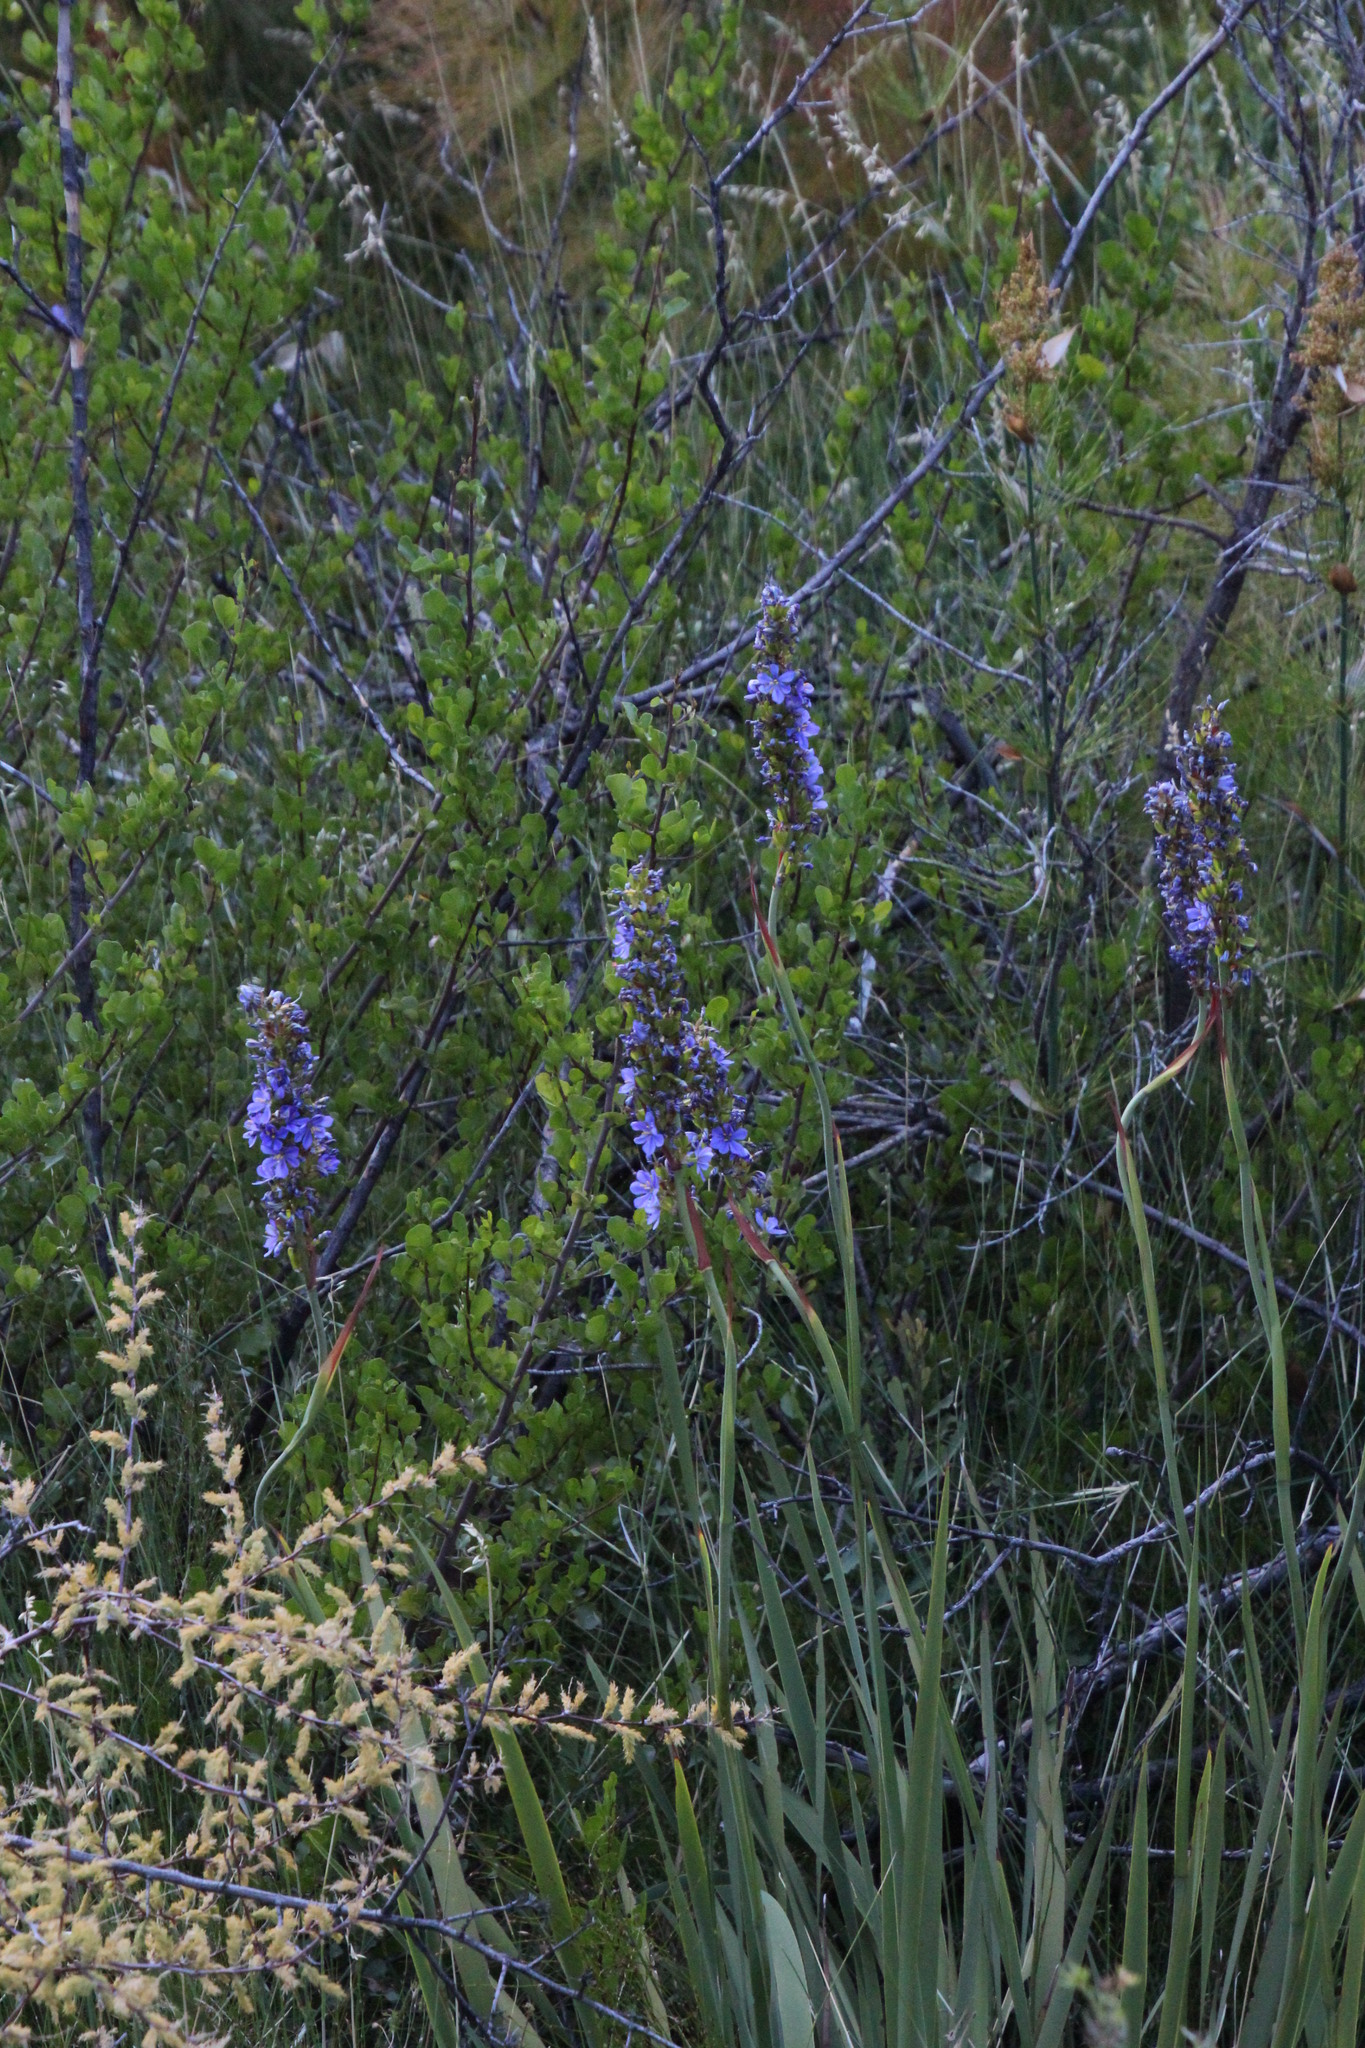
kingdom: Plantae
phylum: Tracheophyta
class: Liliopsida
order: Asparagales
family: Iridaceae
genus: Aristea
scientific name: Aristea capitata
